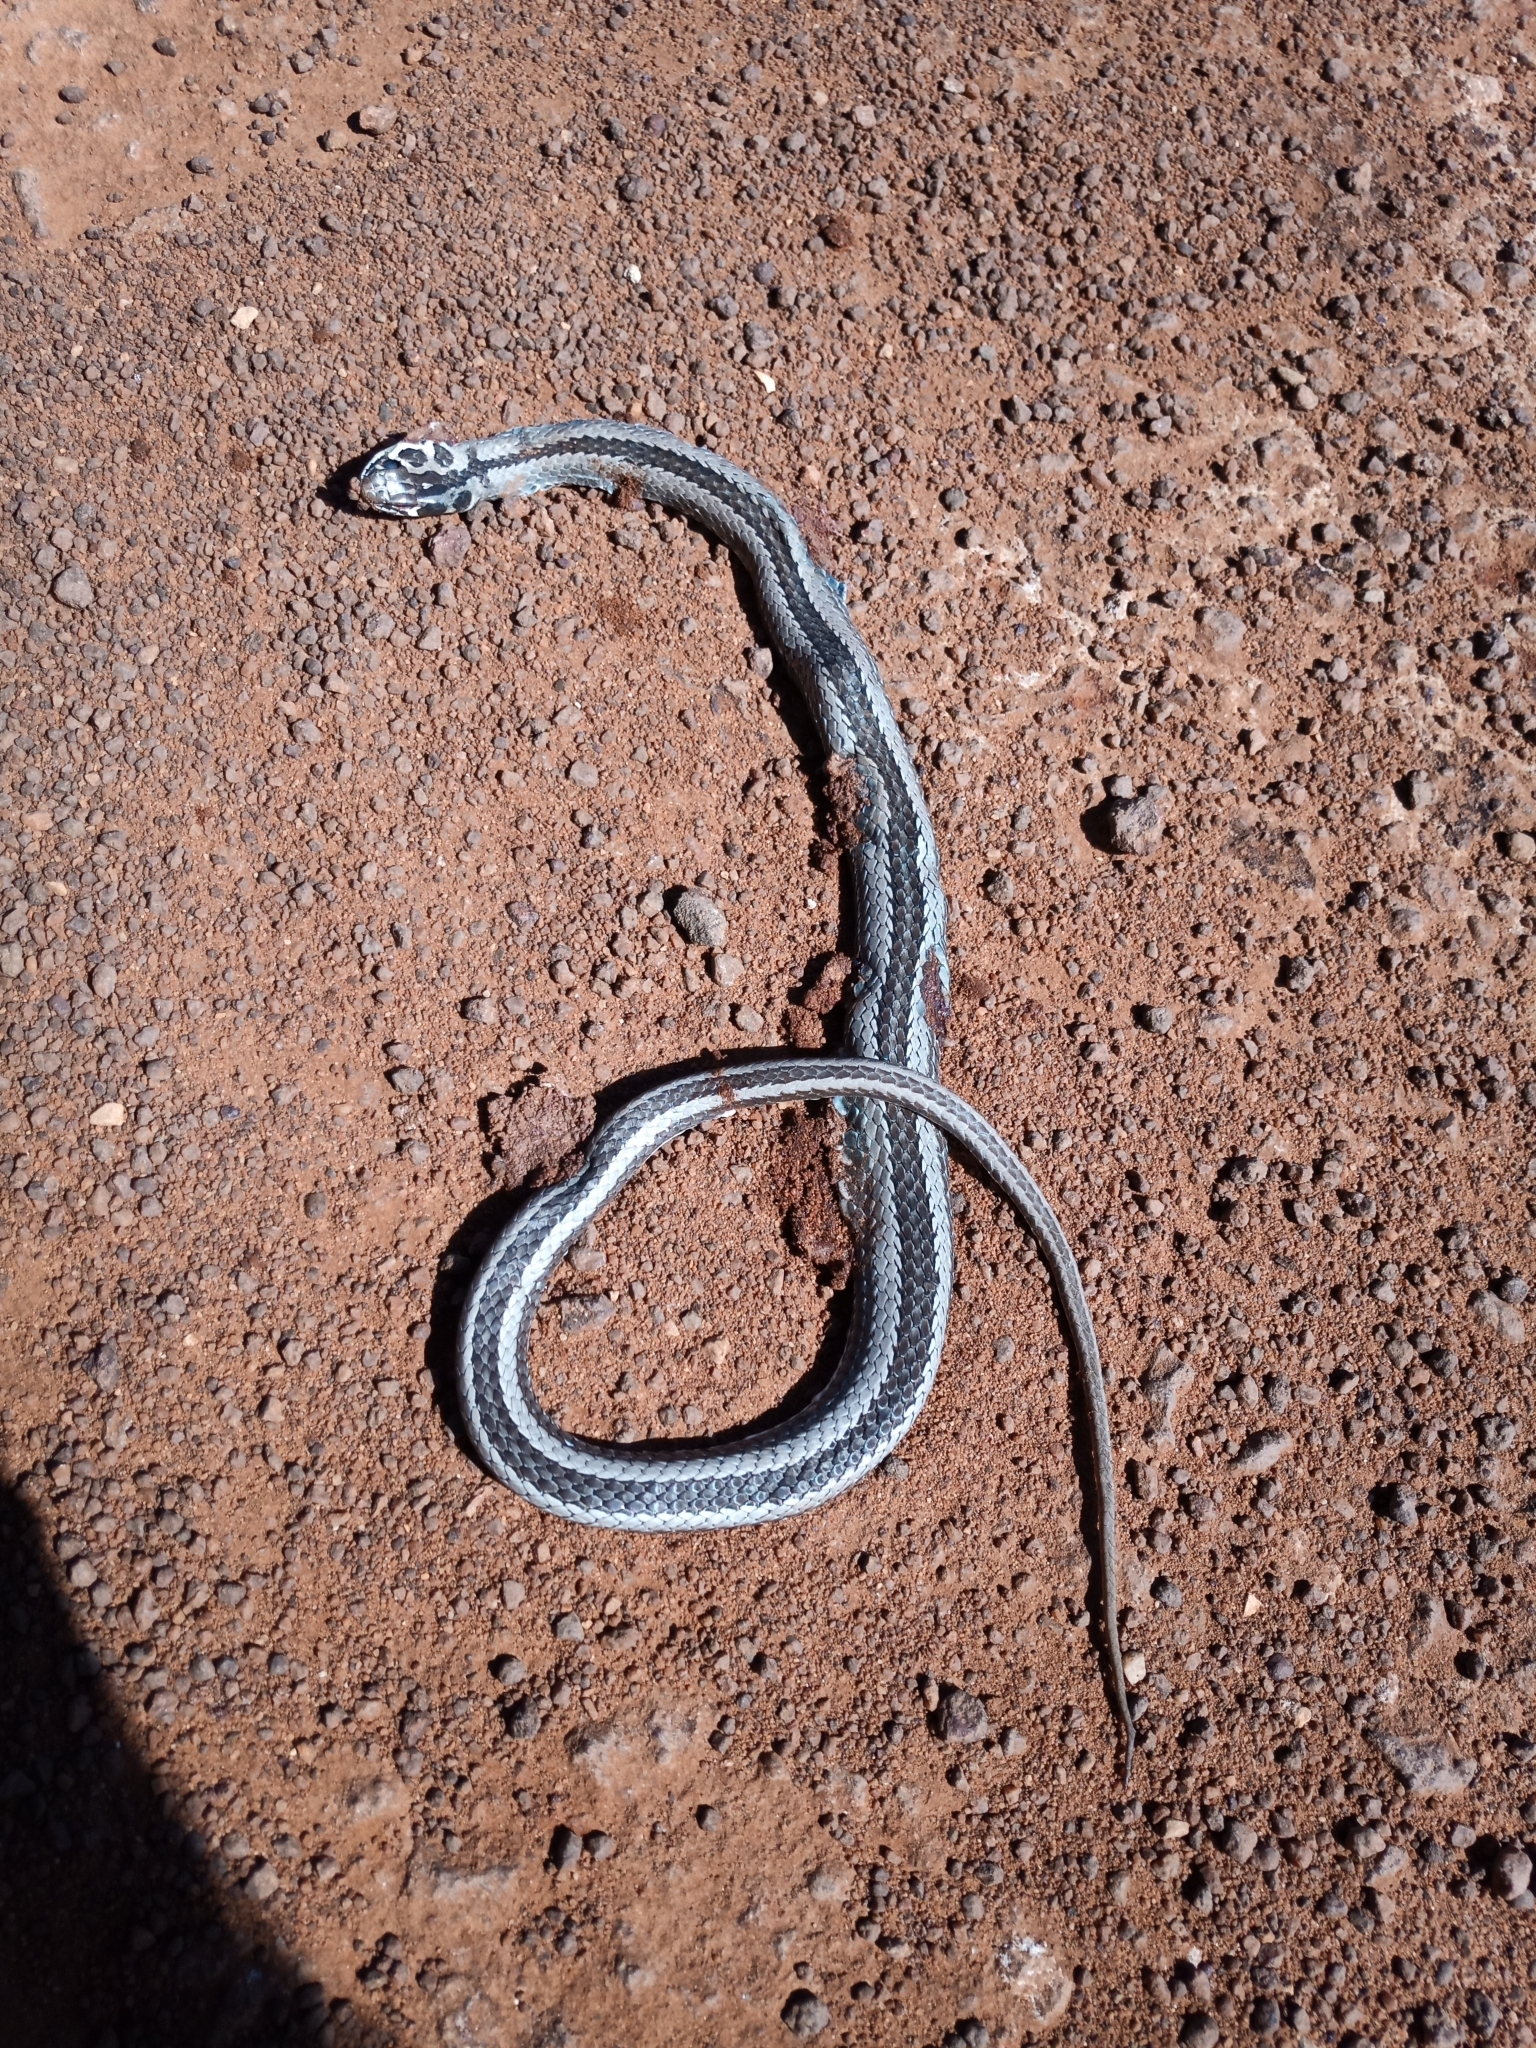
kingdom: Animalia
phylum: Chordata
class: Squamata
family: Psammophiidae
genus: Psammophis
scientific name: Psammophis crucifer
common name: Cross-marked grass snake
